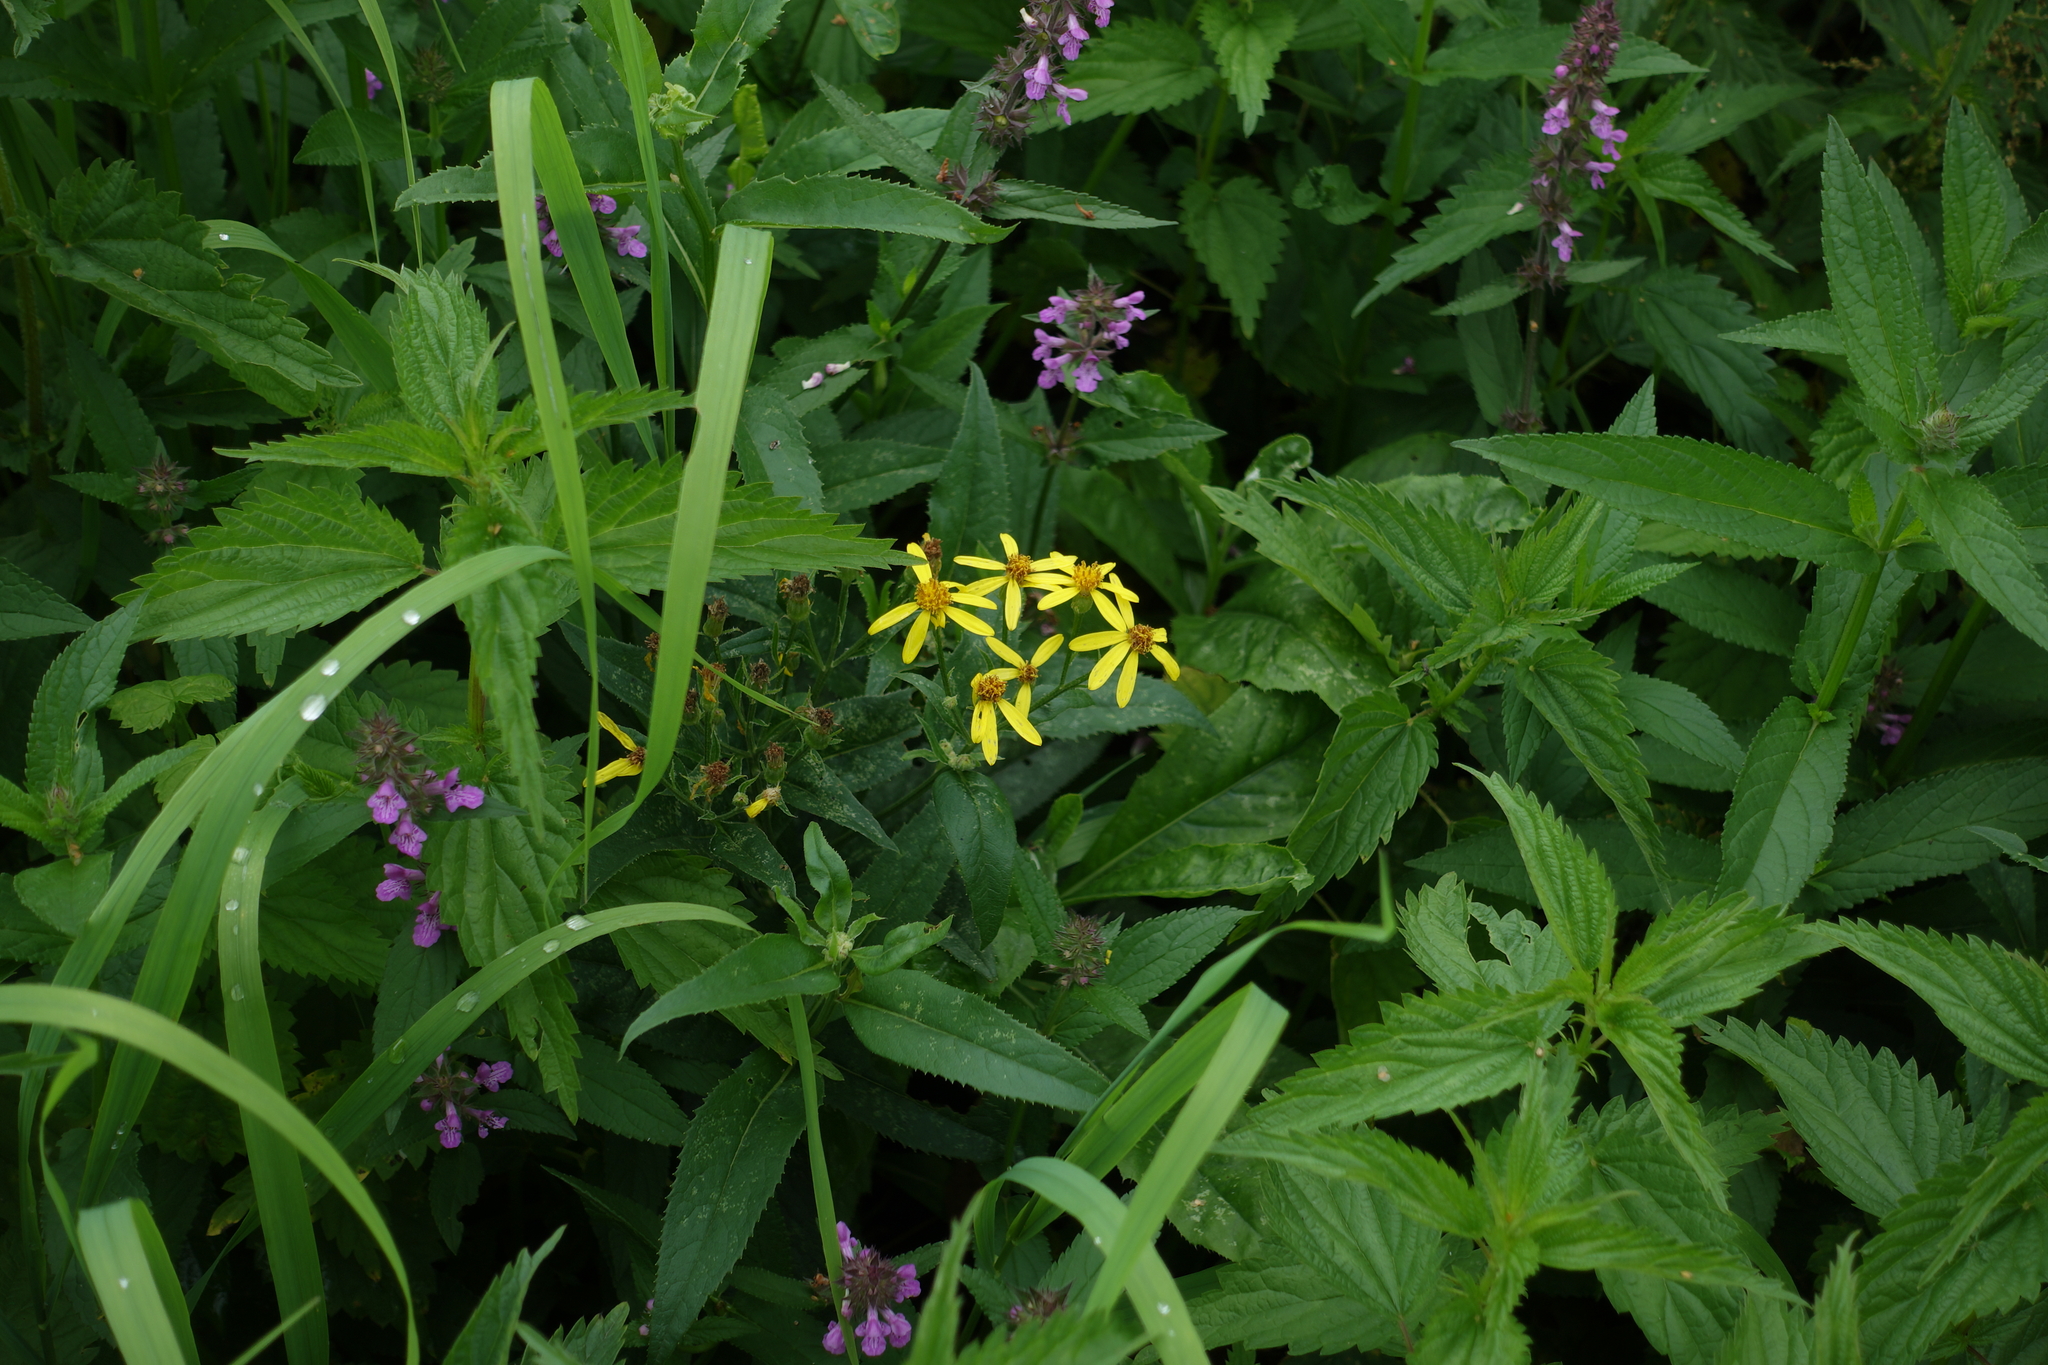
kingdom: Plantae
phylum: Tracheophyta
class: Magnoliopsida
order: Rosales
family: Urticaceae
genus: Urtica
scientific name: Urtica dioica
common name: Common nettle
